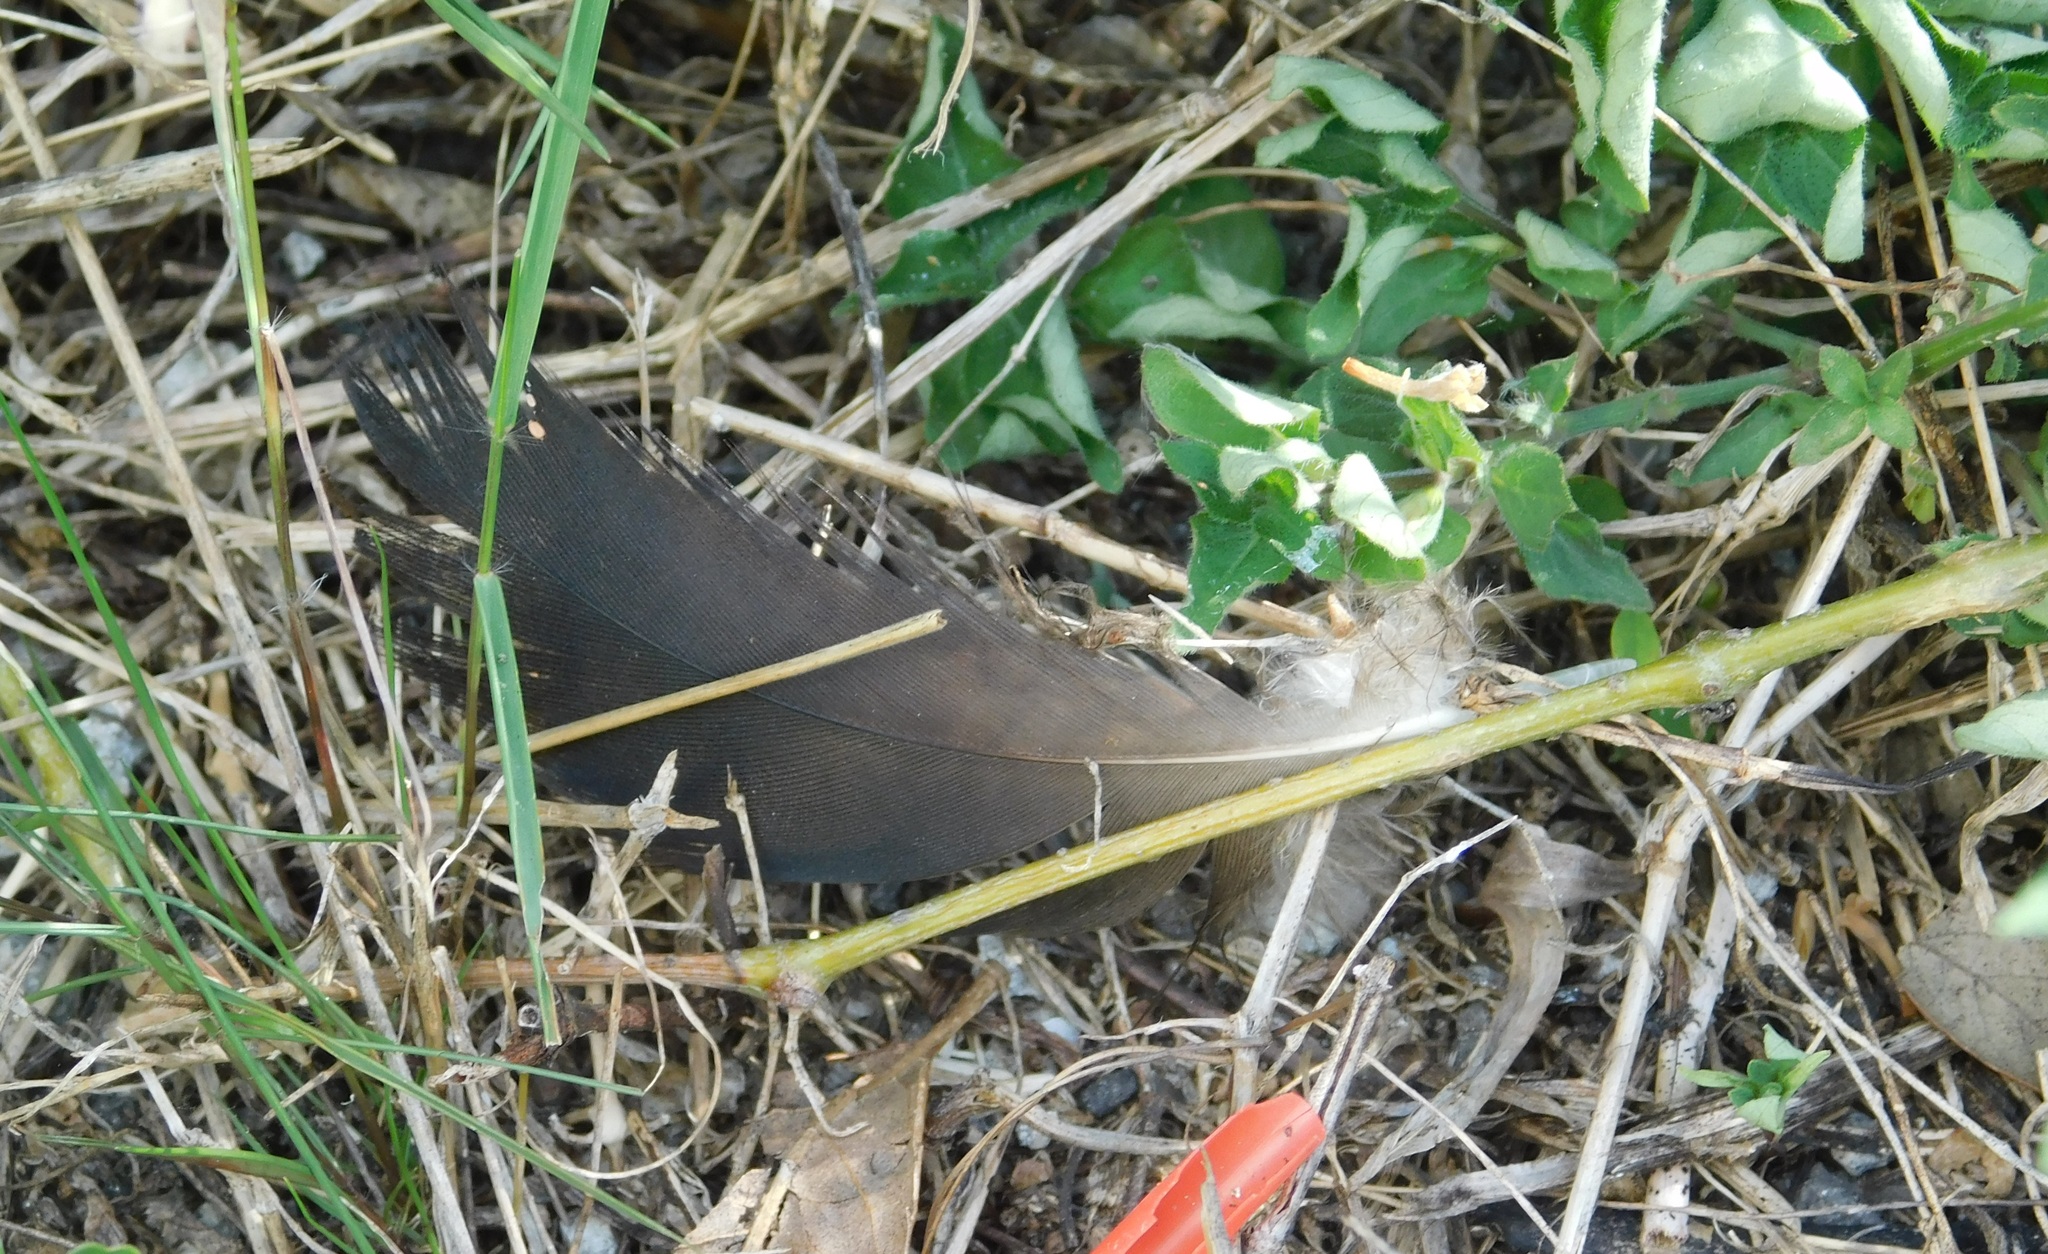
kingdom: Animalia
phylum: Chordata
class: Aves
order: Pelecaniformes
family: Ardeidae
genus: Nycticorax
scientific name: Nycticorax nycticorax
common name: Black-crowned night heron
